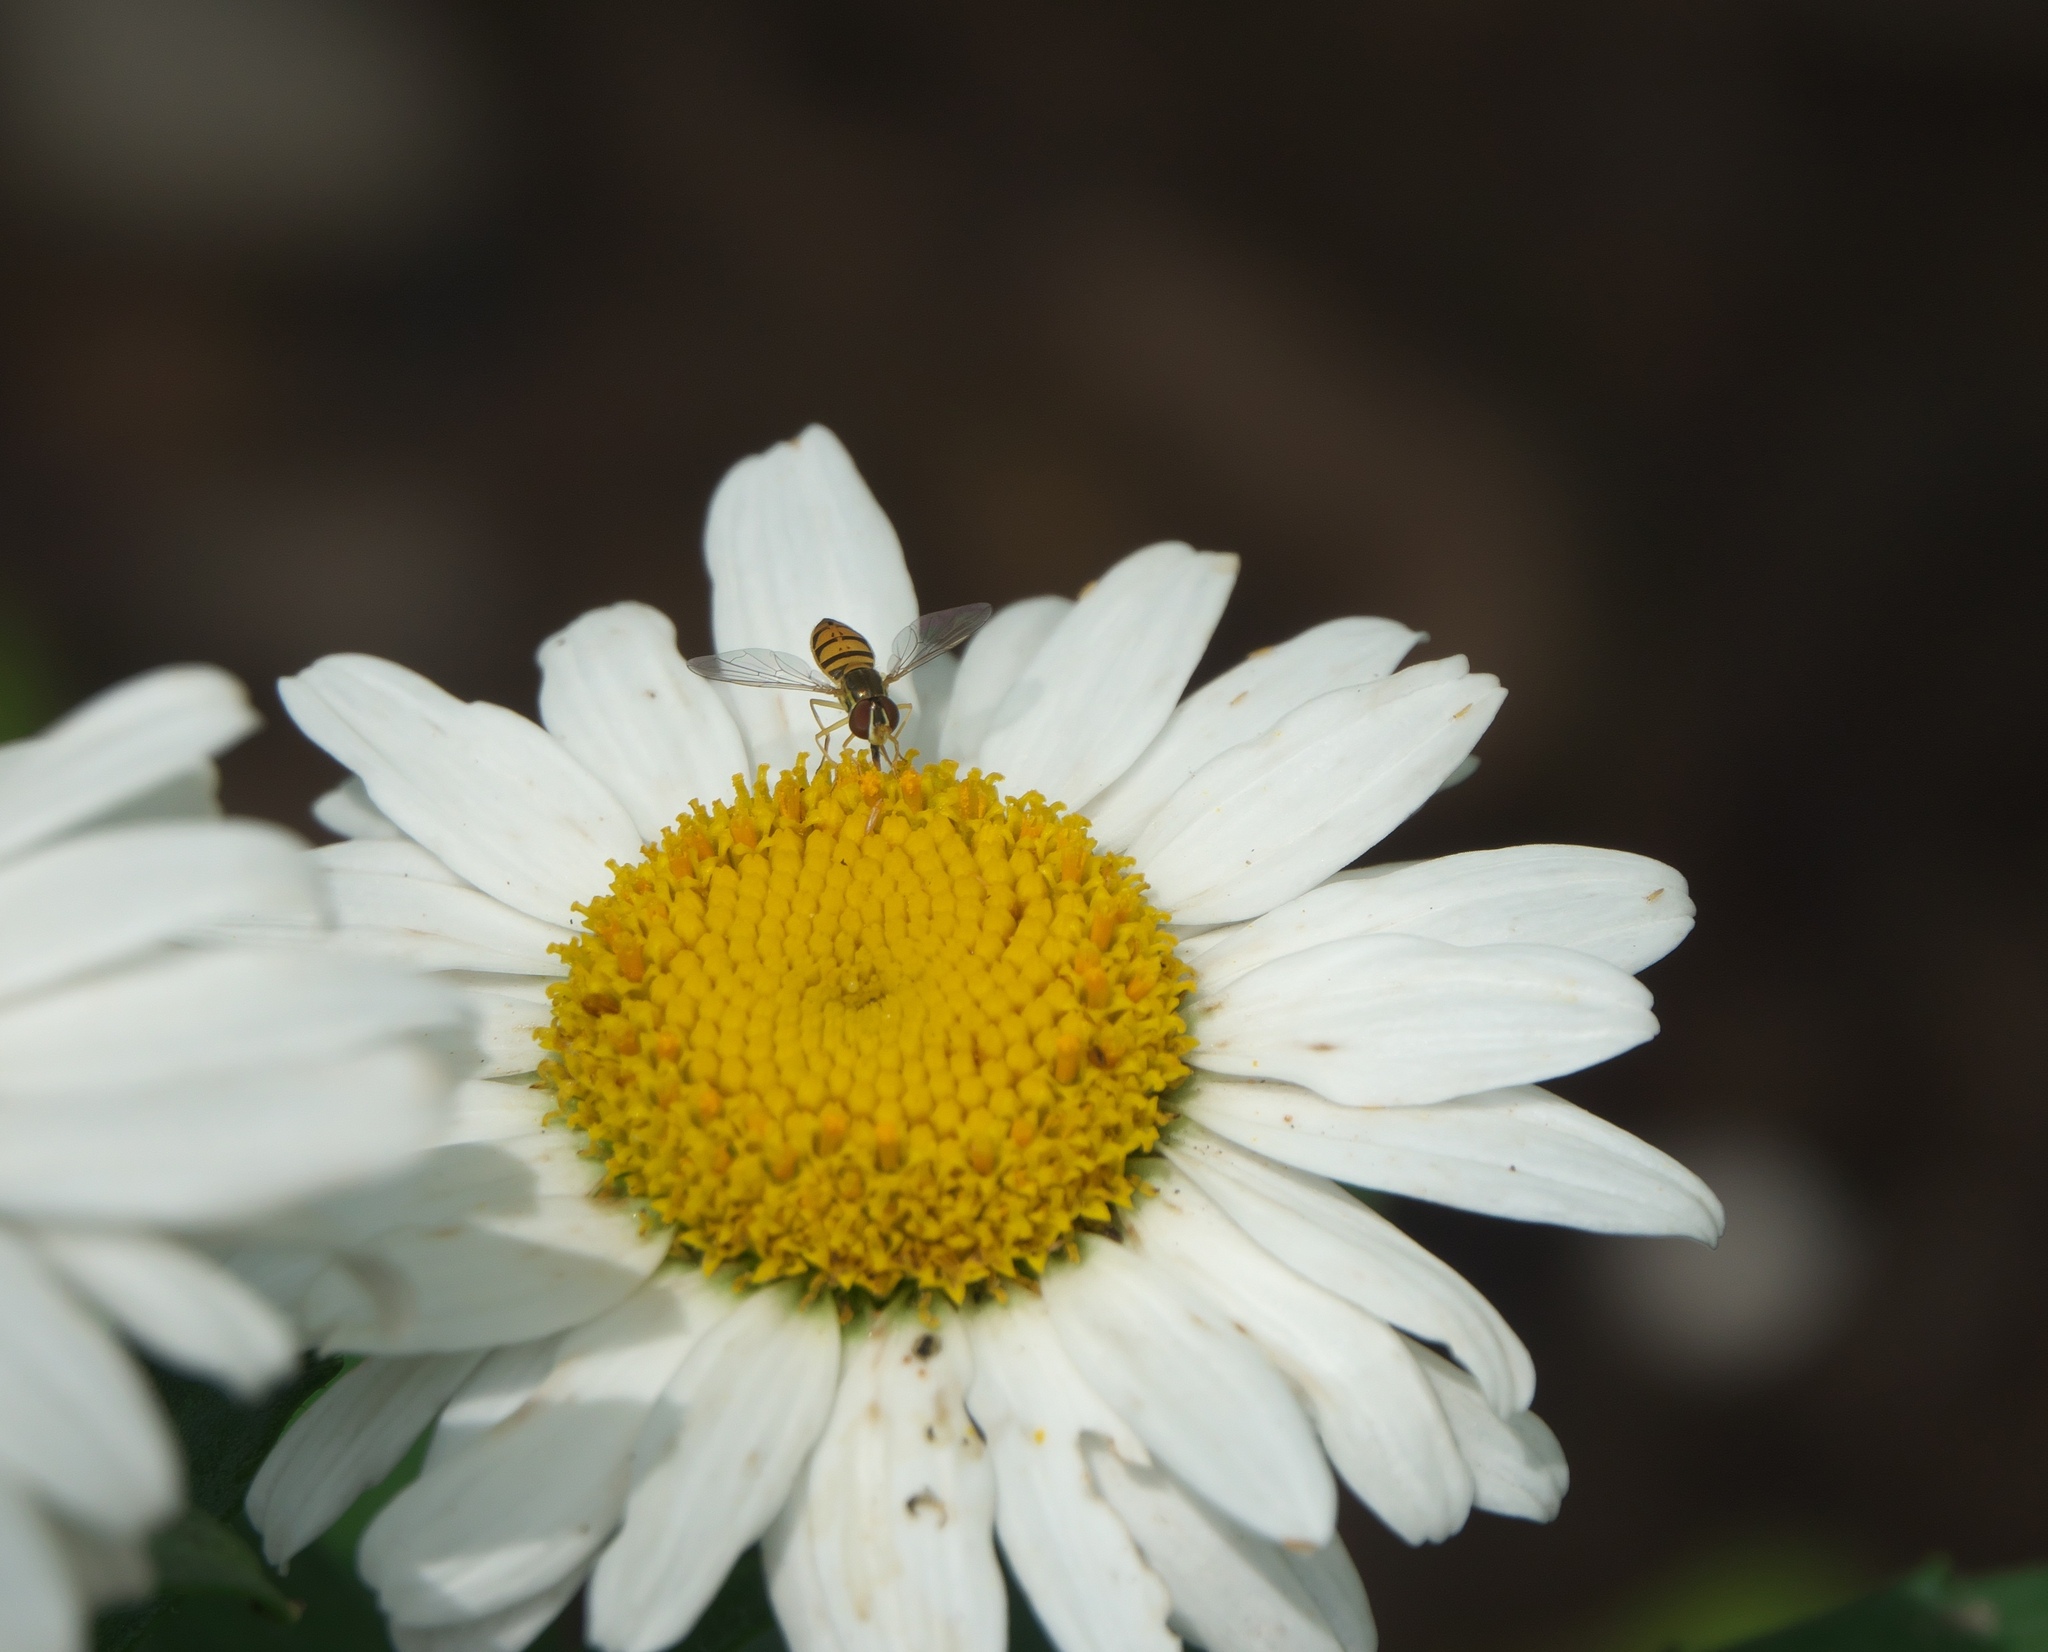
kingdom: Animalia
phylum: Arthropoda
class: Insecta
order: Diptera
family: Syrphidae
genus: Toxomerus
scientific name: Toxomerus marginatus
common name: Syrphid fly
